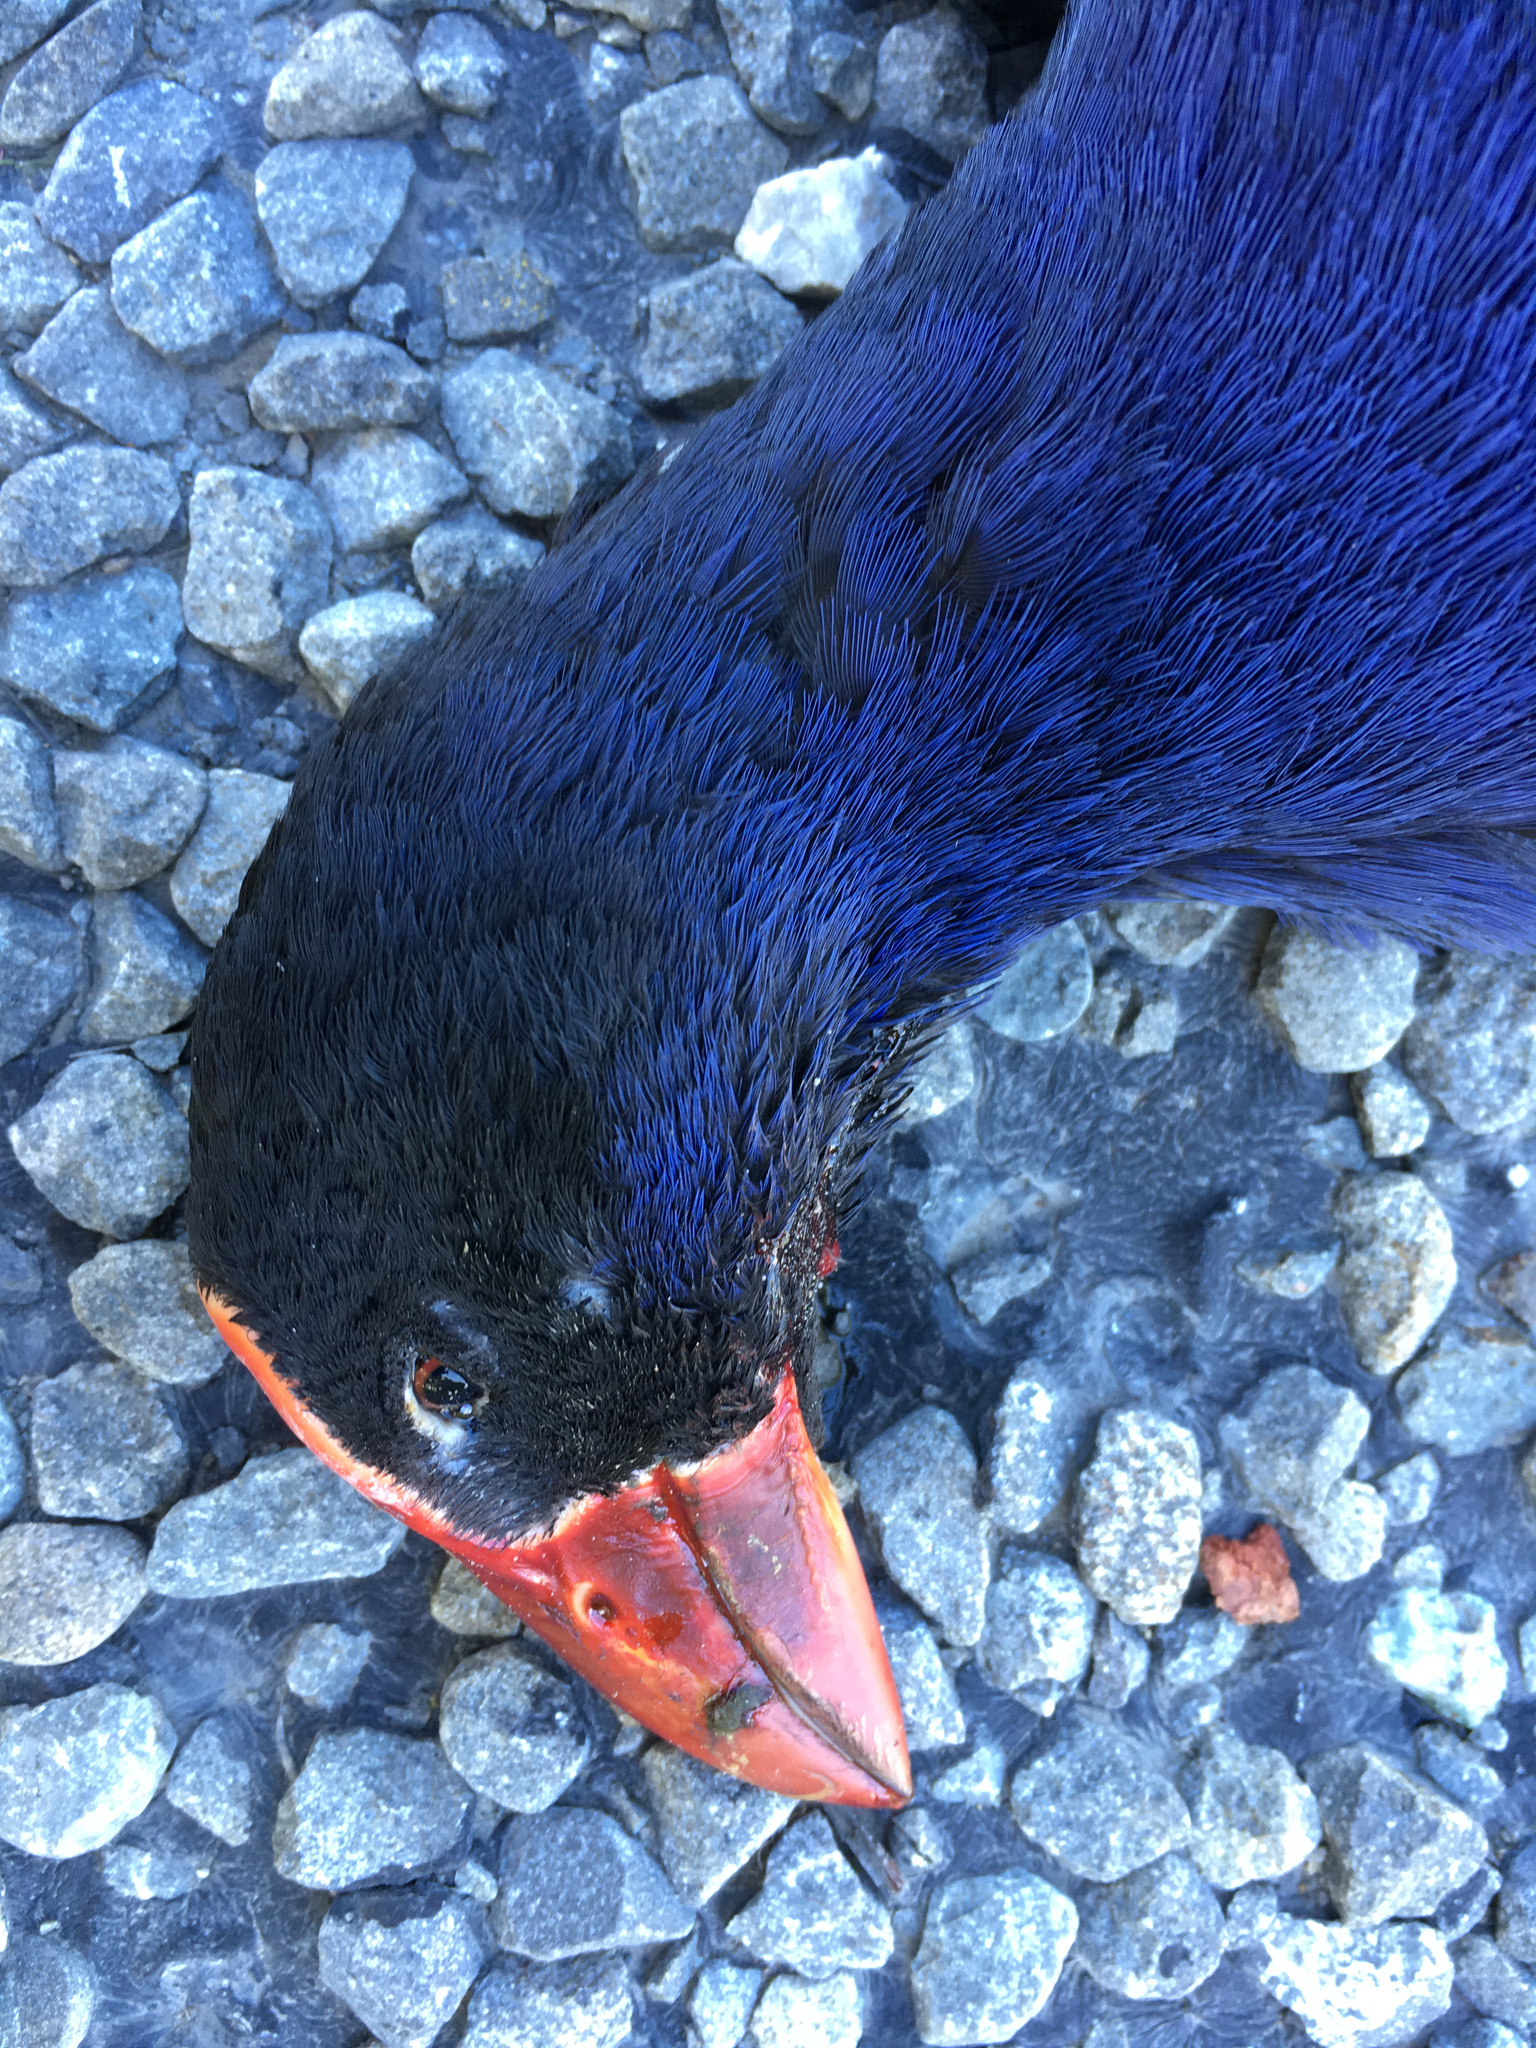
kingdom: Animalia
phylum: Chordata
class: Aves
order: Gruiformes
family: Rallidae
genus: Porphyrio
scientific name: Porphyrio melanotus
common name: Australasian swamphen
